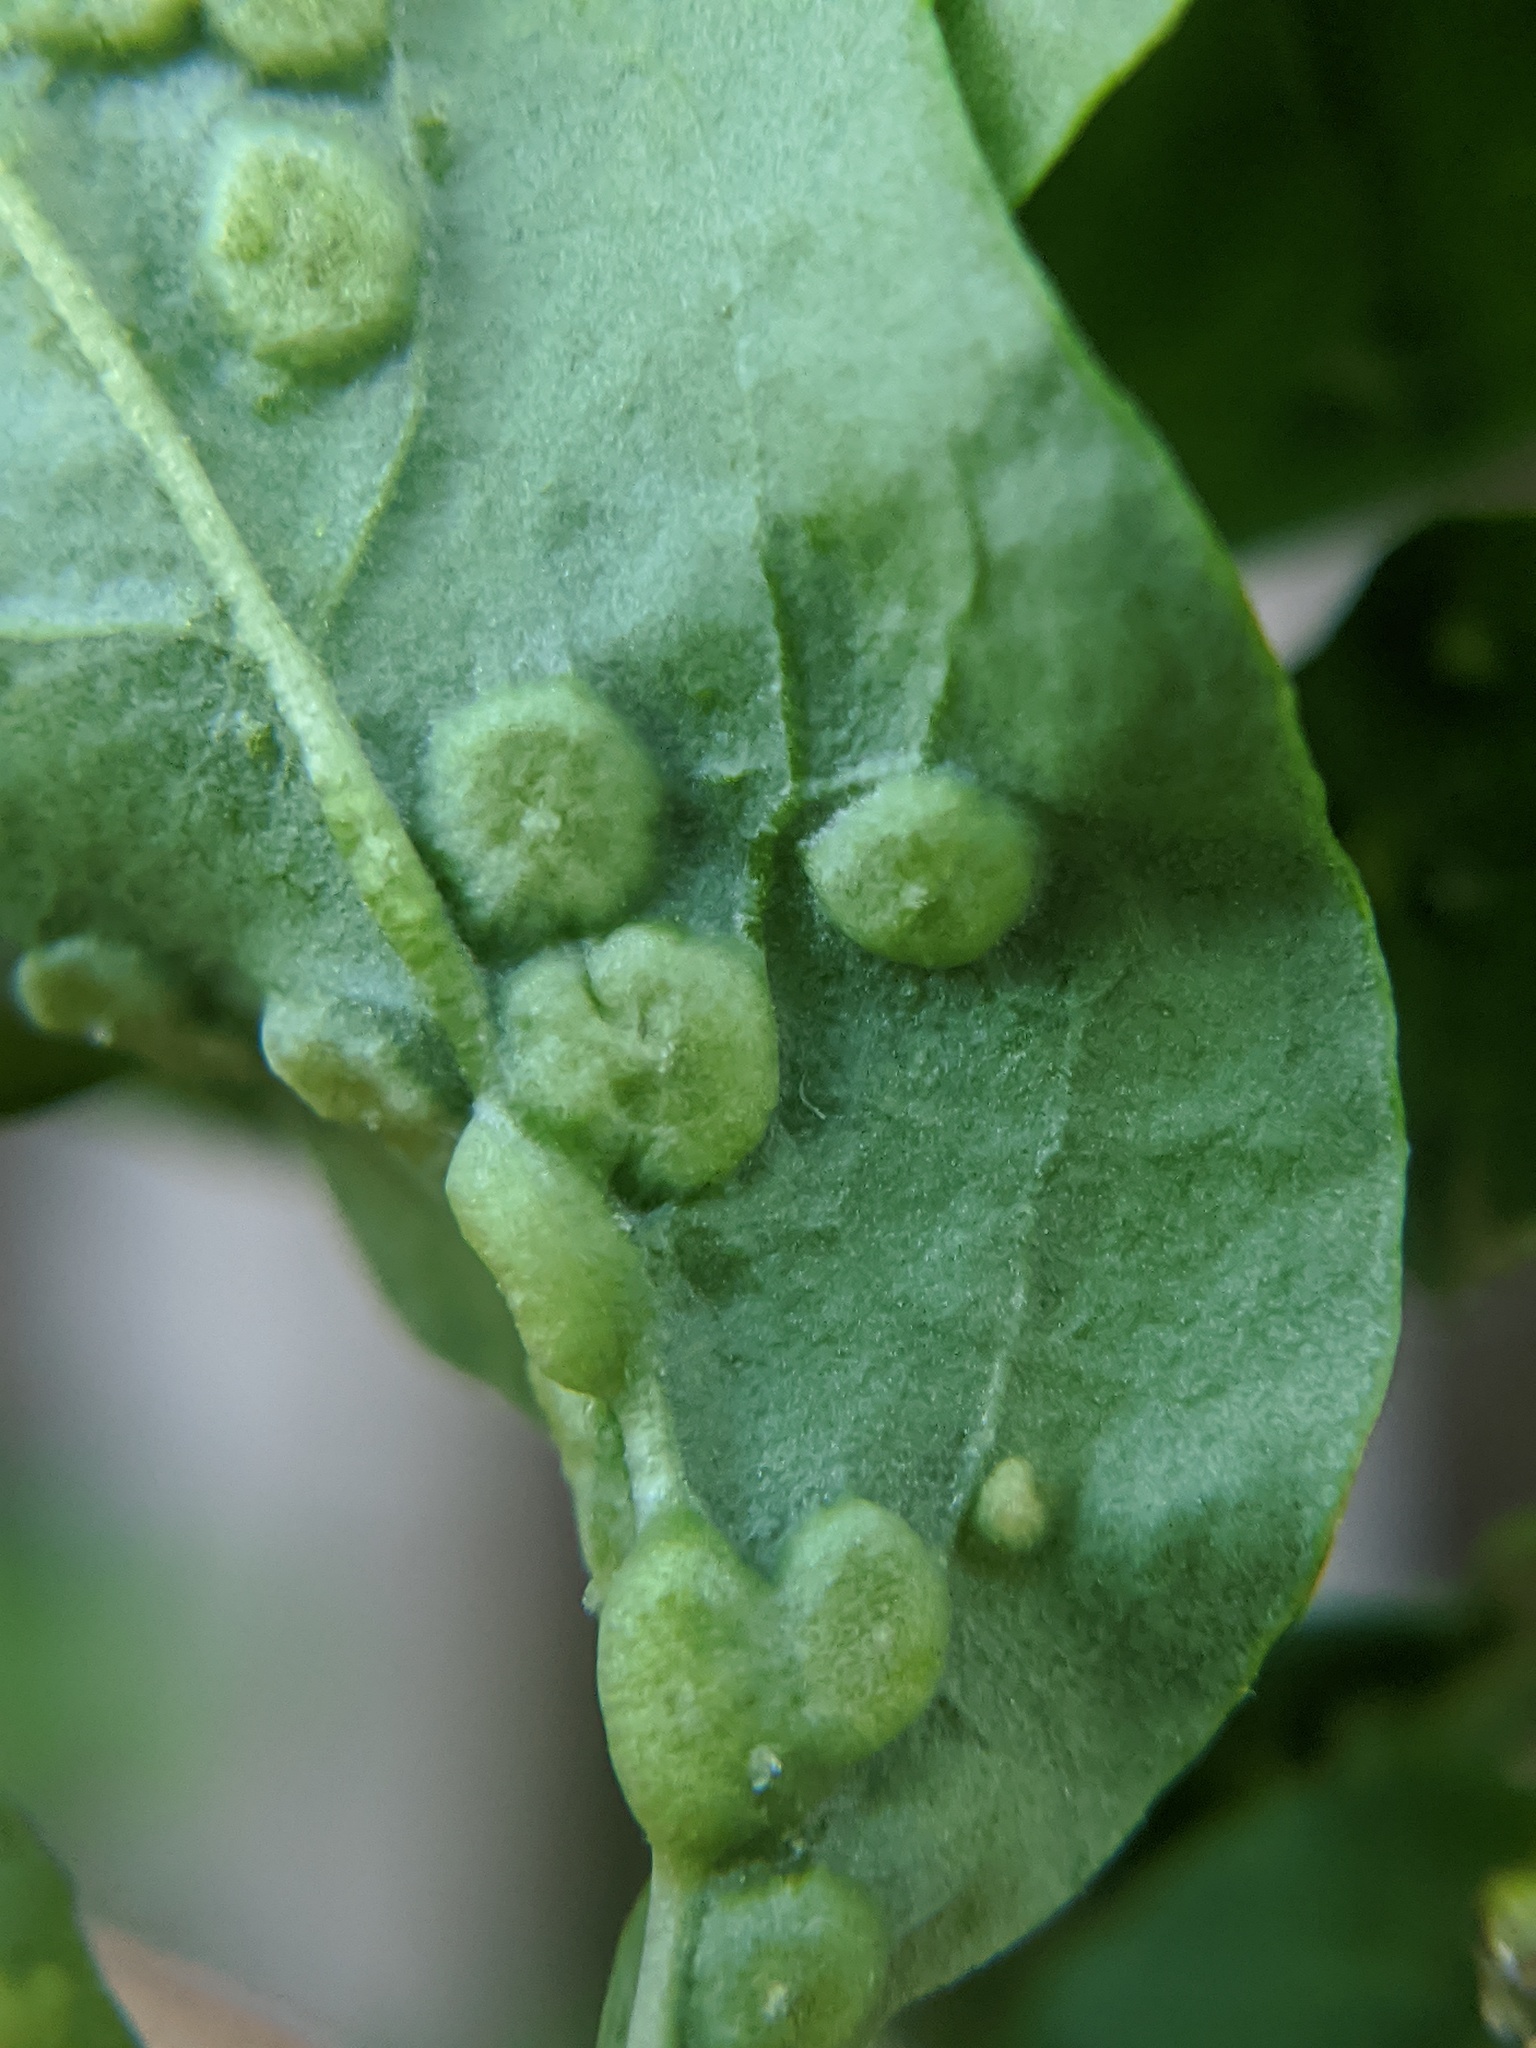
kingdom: Animalia
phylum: Arthropoda
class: Arachnida
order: Trombidiformes
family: Eriophyidae
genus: Aceria
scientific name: Aceria kuko
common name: Goji gall mite
